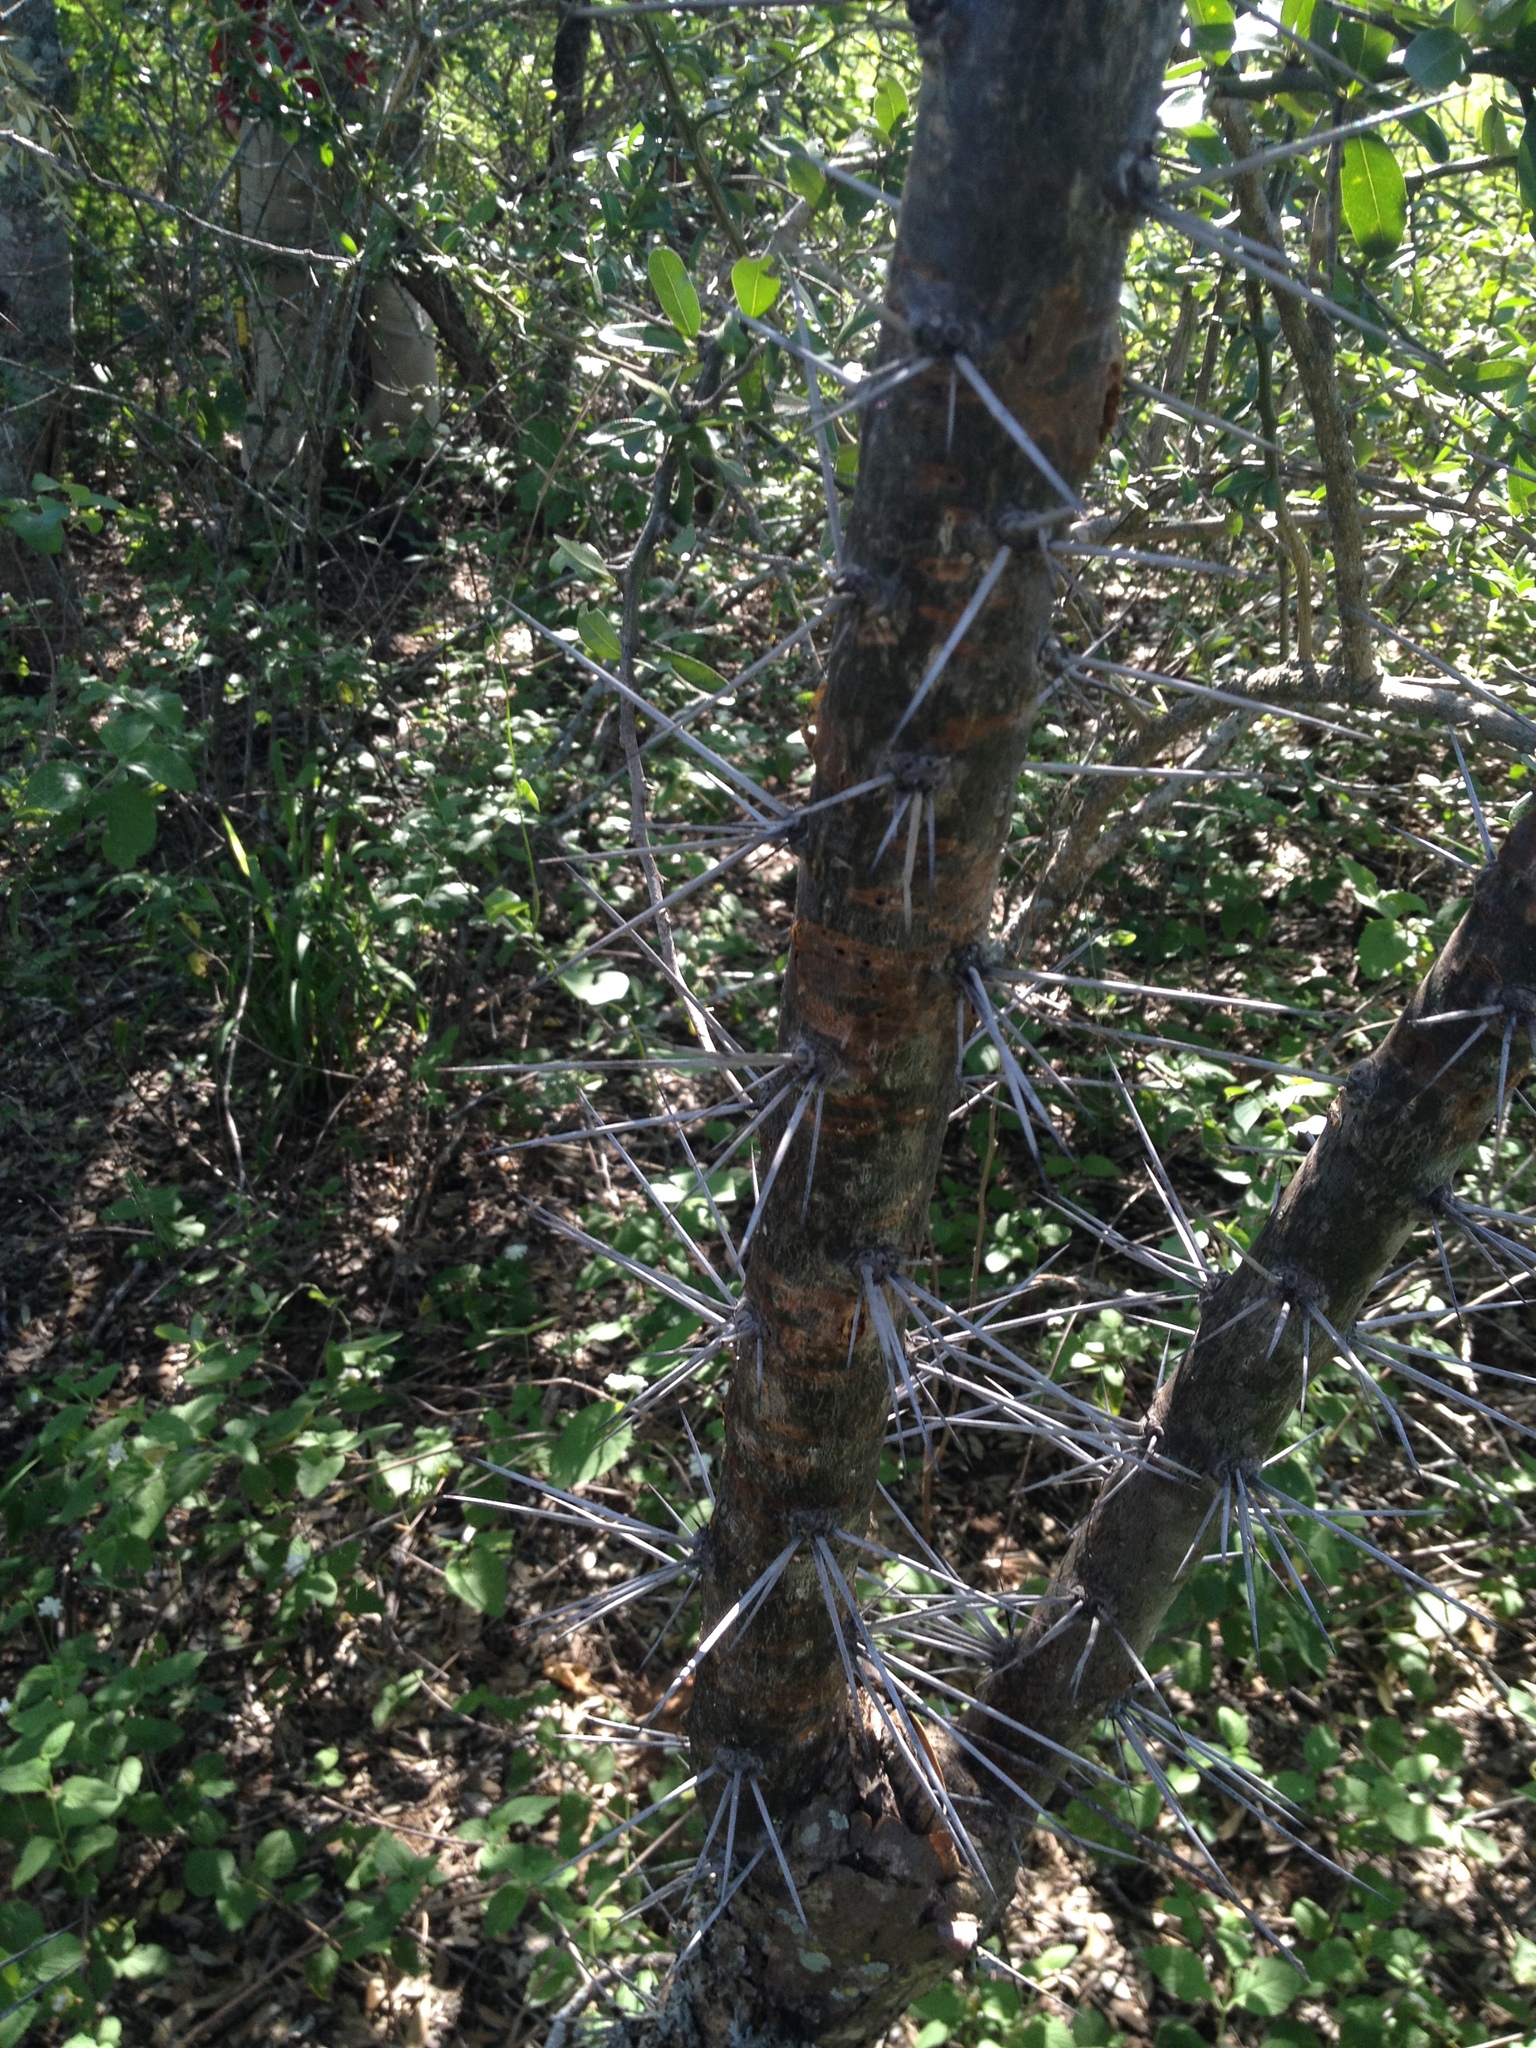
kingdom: Plantae
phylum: Tracheophyta
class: Magnoliopsida
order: Caryophyllales
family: Cactaceae
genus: Pereskia
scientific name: Pereskia sacharosa
